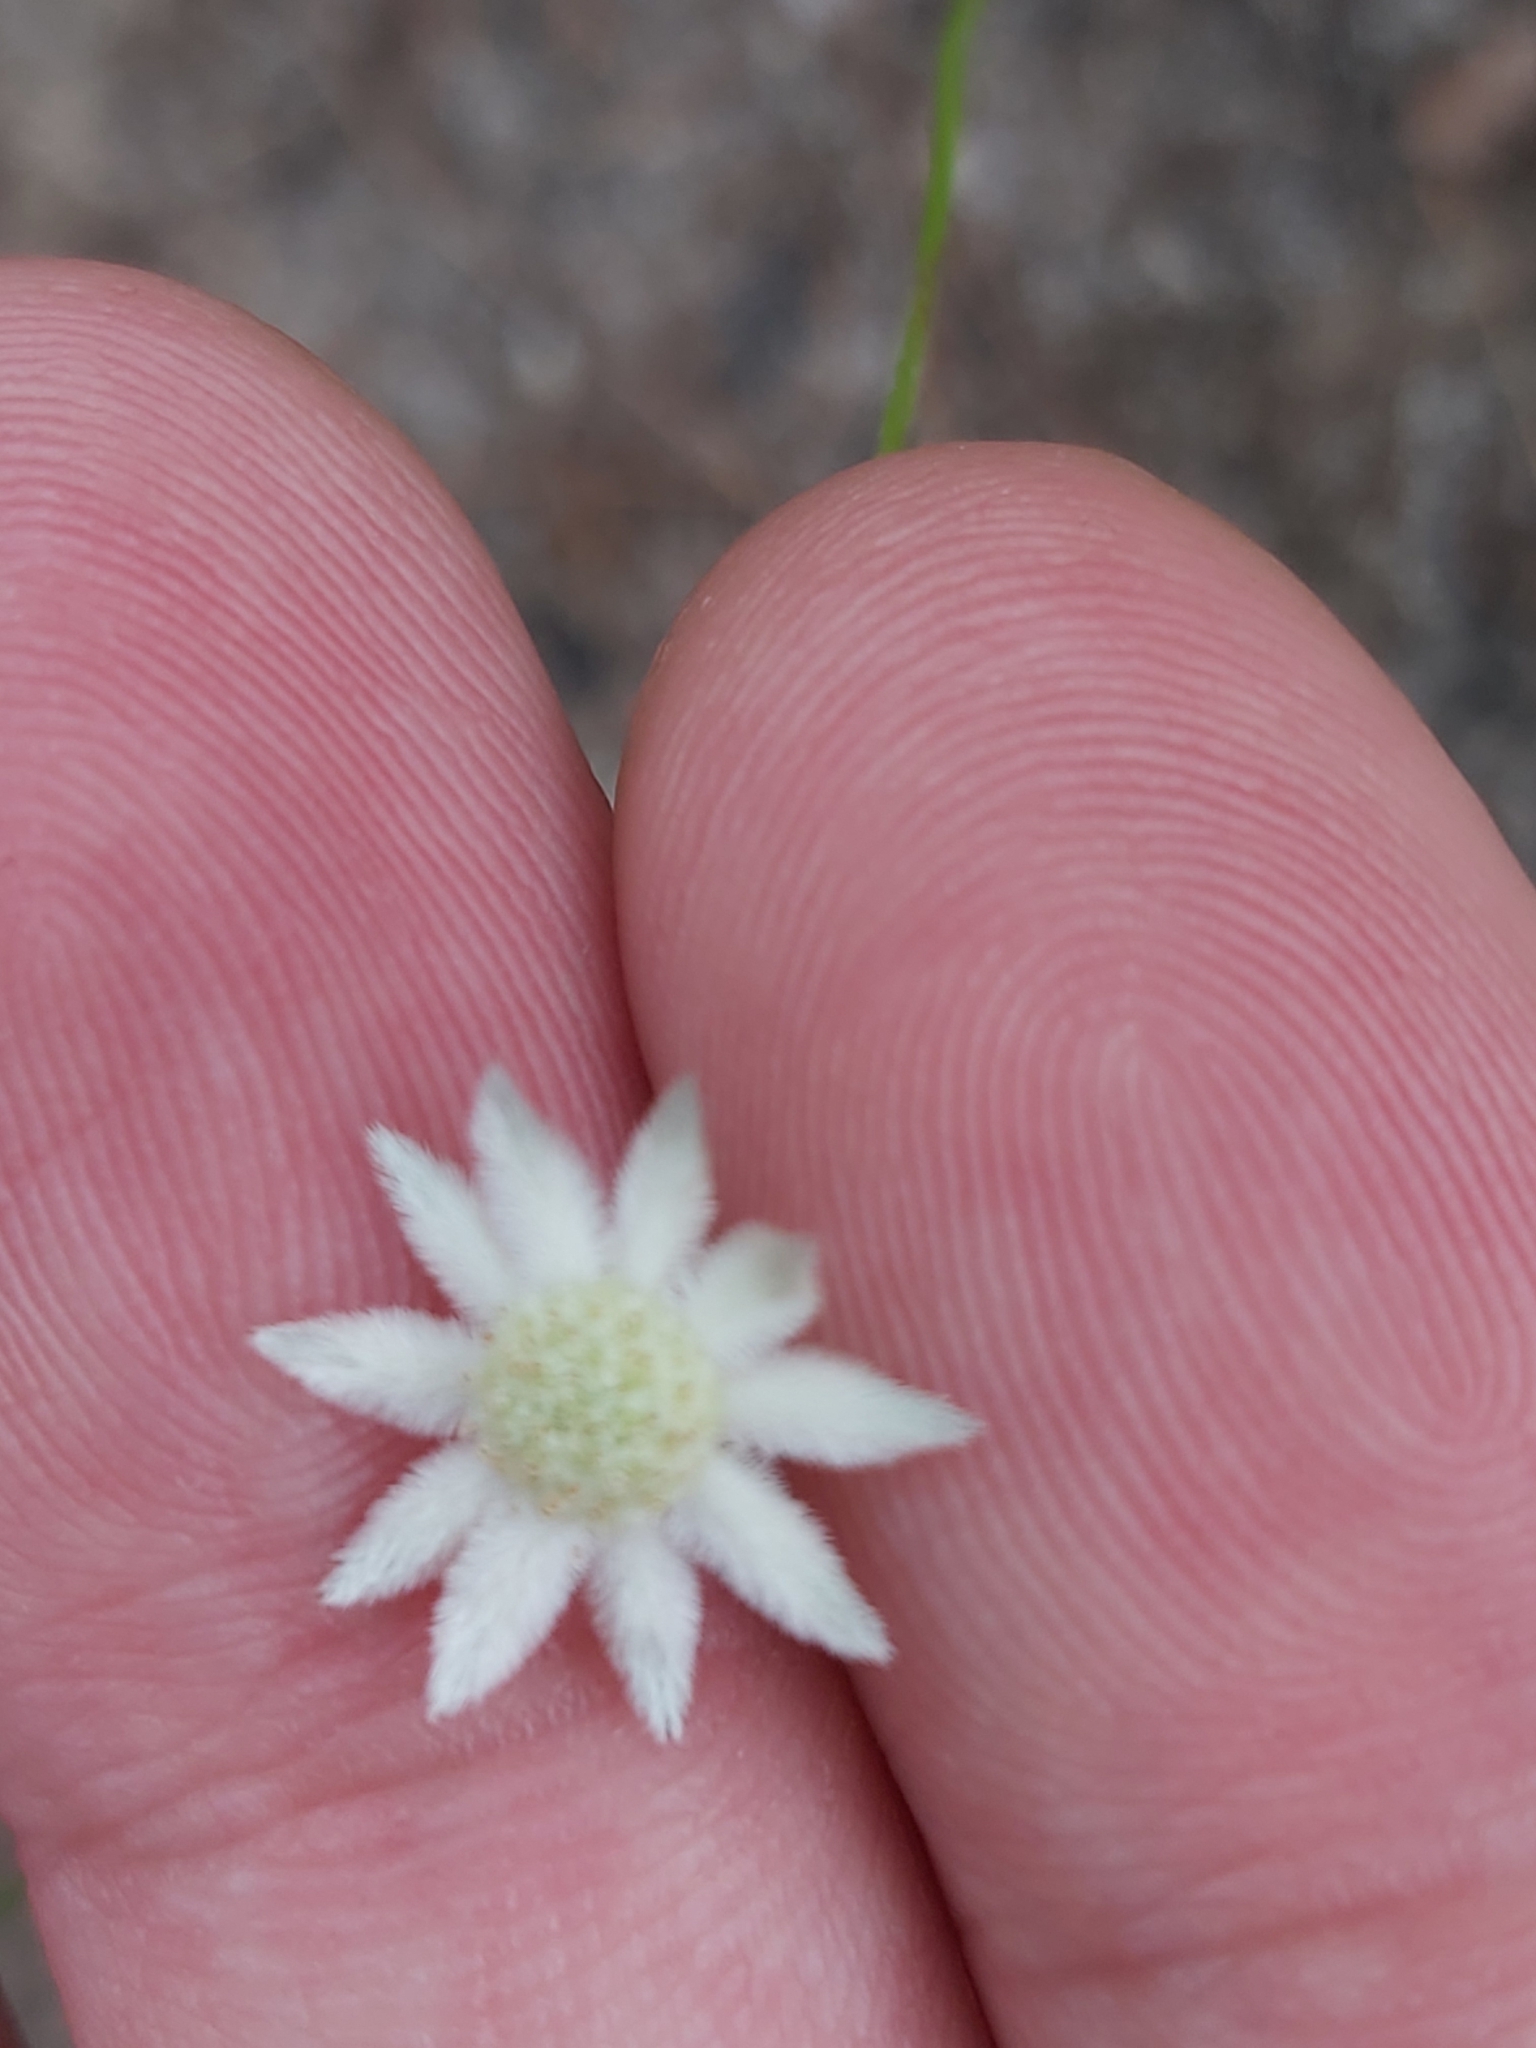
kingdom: Plantae
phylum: Tracheophyta
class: Magnoliopsida
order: Apiales
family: Apiaceae
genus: Actinotus
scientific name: Actinotus minor
